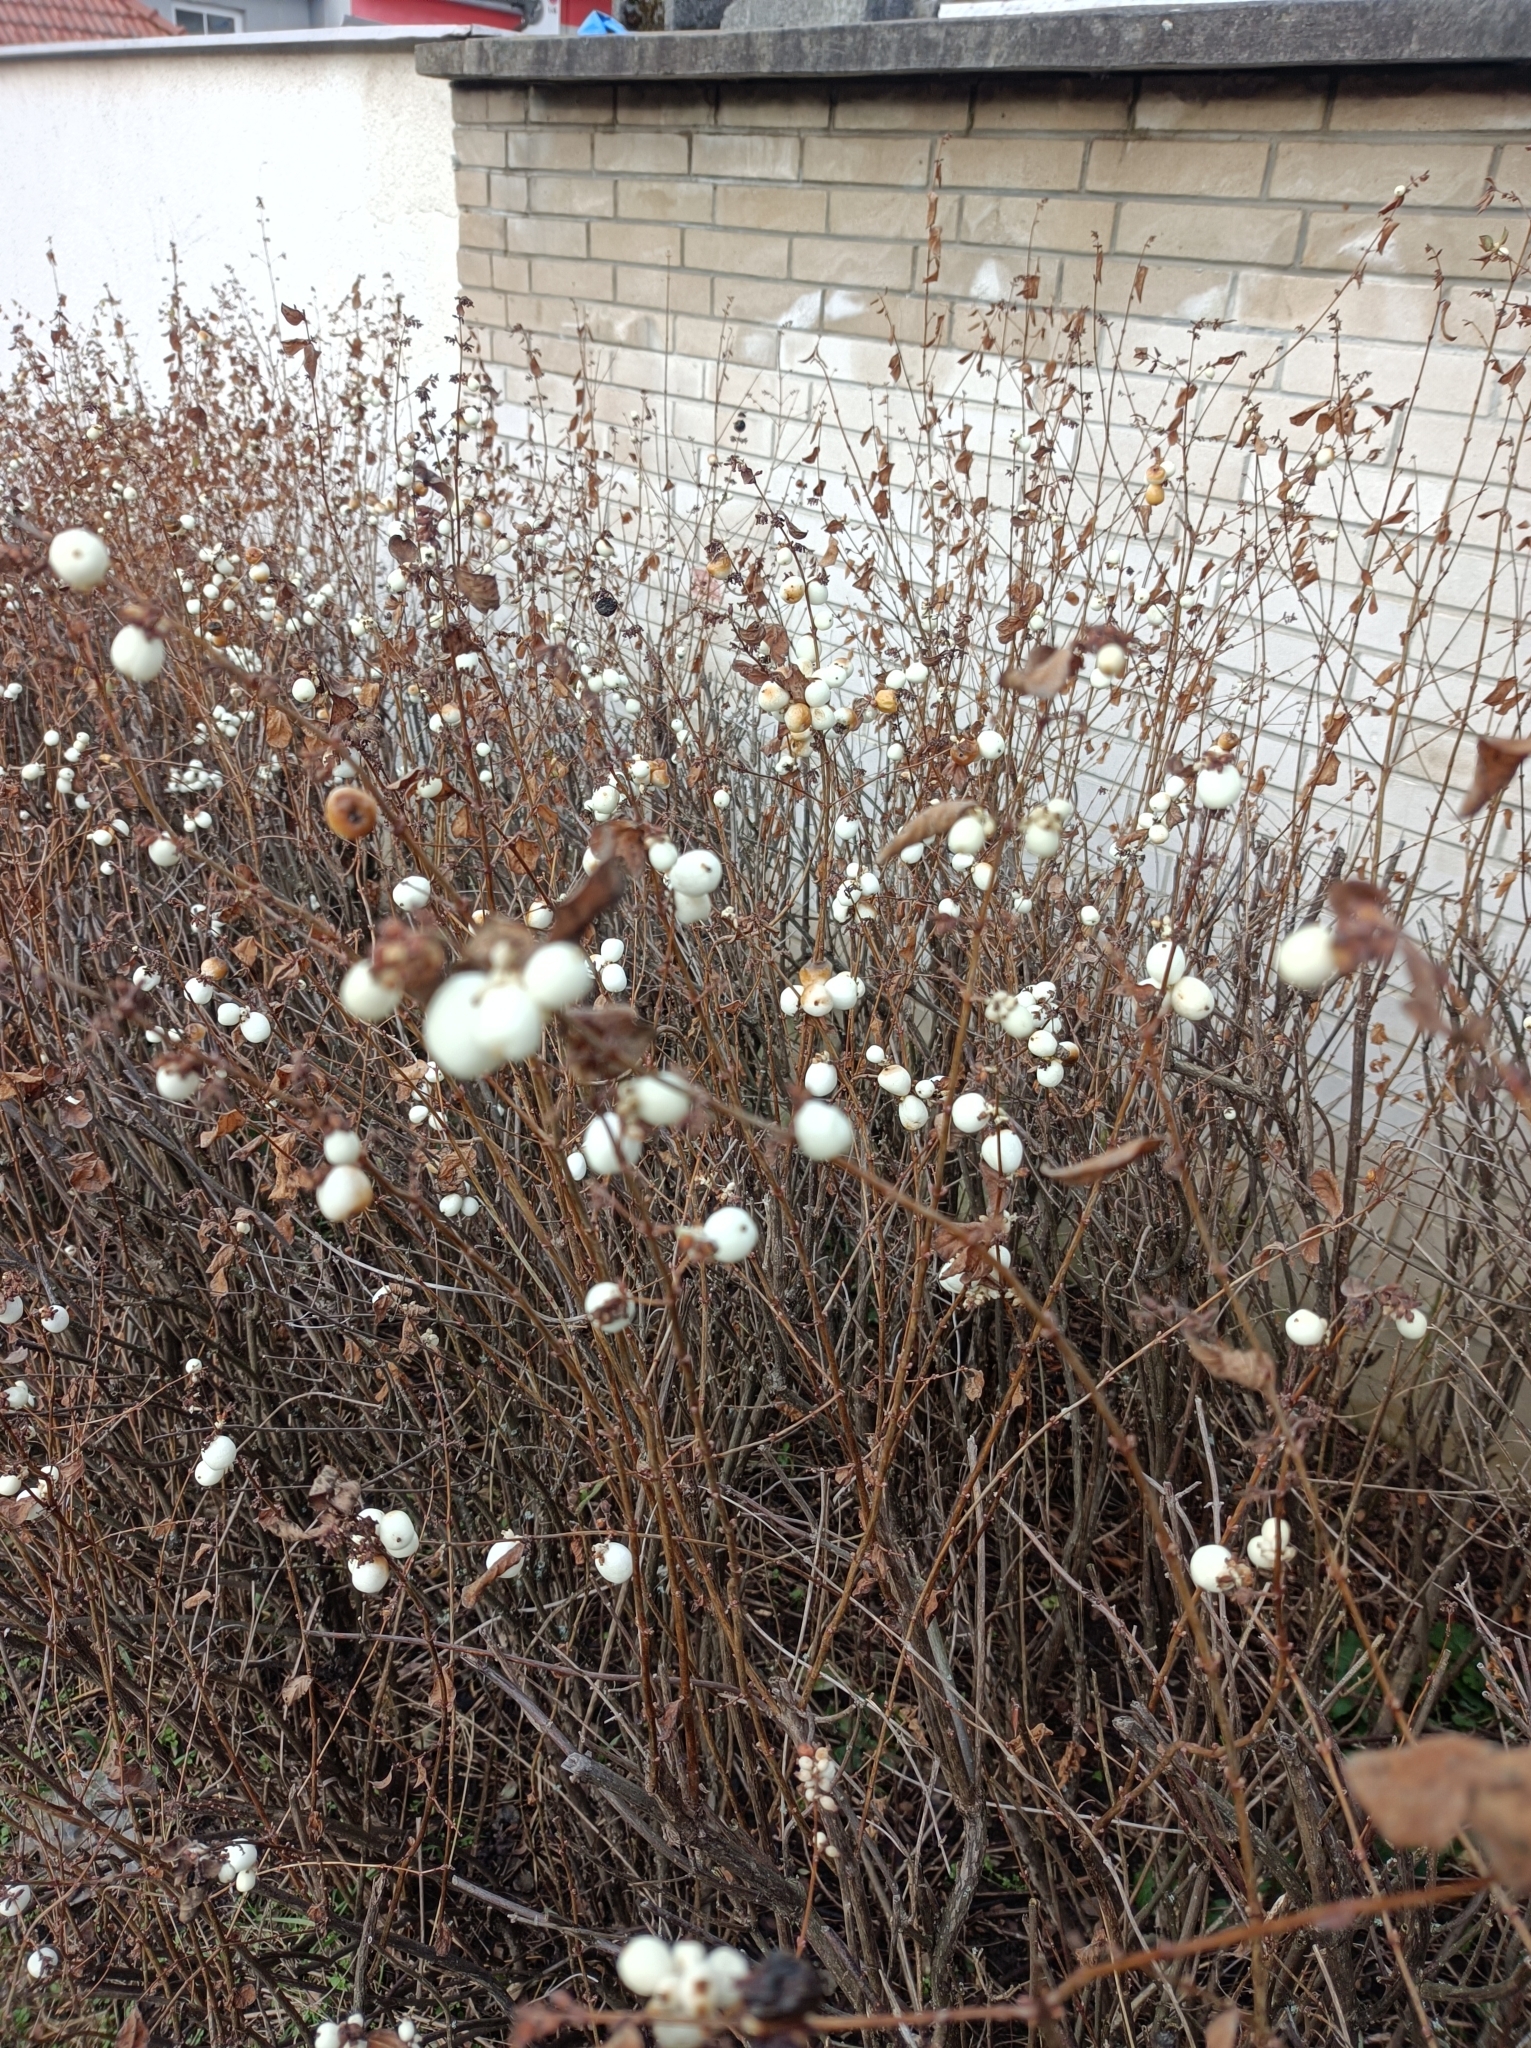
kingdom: Plantae
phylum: Tracheophyta
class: Magnoliopsida
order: Dipsacales
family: Caprifoliaceae
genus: Symphoricarpos
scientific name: Symphoricarpos albus
